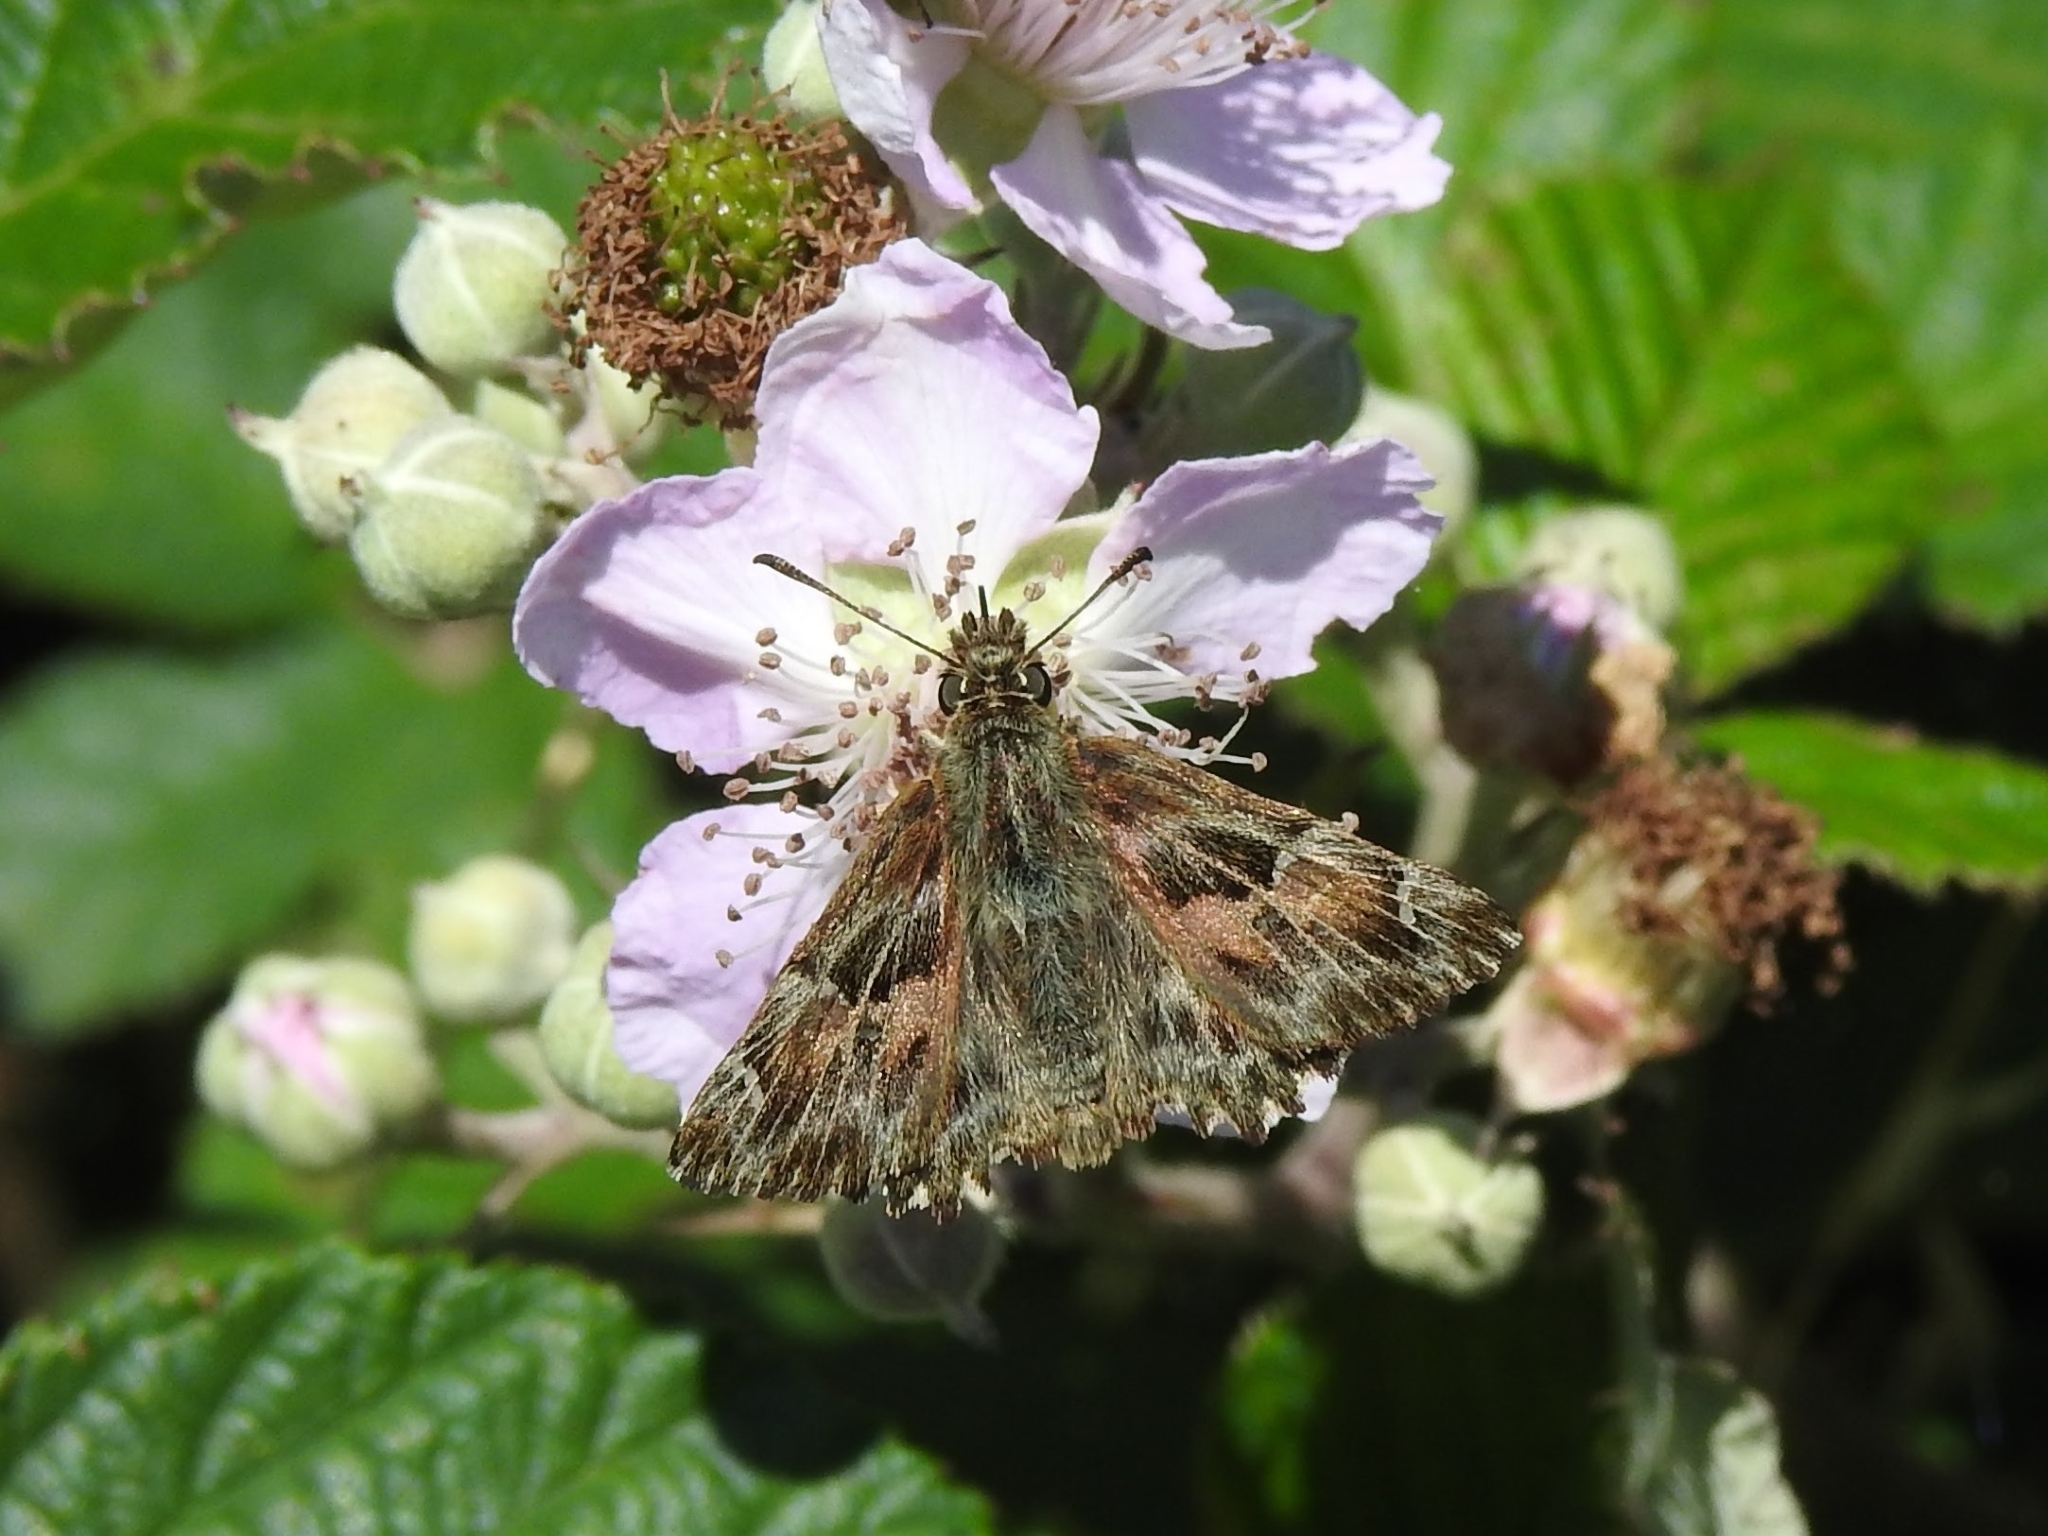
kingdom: Animalia
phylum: Arthropoda
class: Insecta
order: Lepidoptera
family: Hesperiidae
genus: Carcharodus
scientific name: Carcharodus alceae
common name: Mallow skipper
